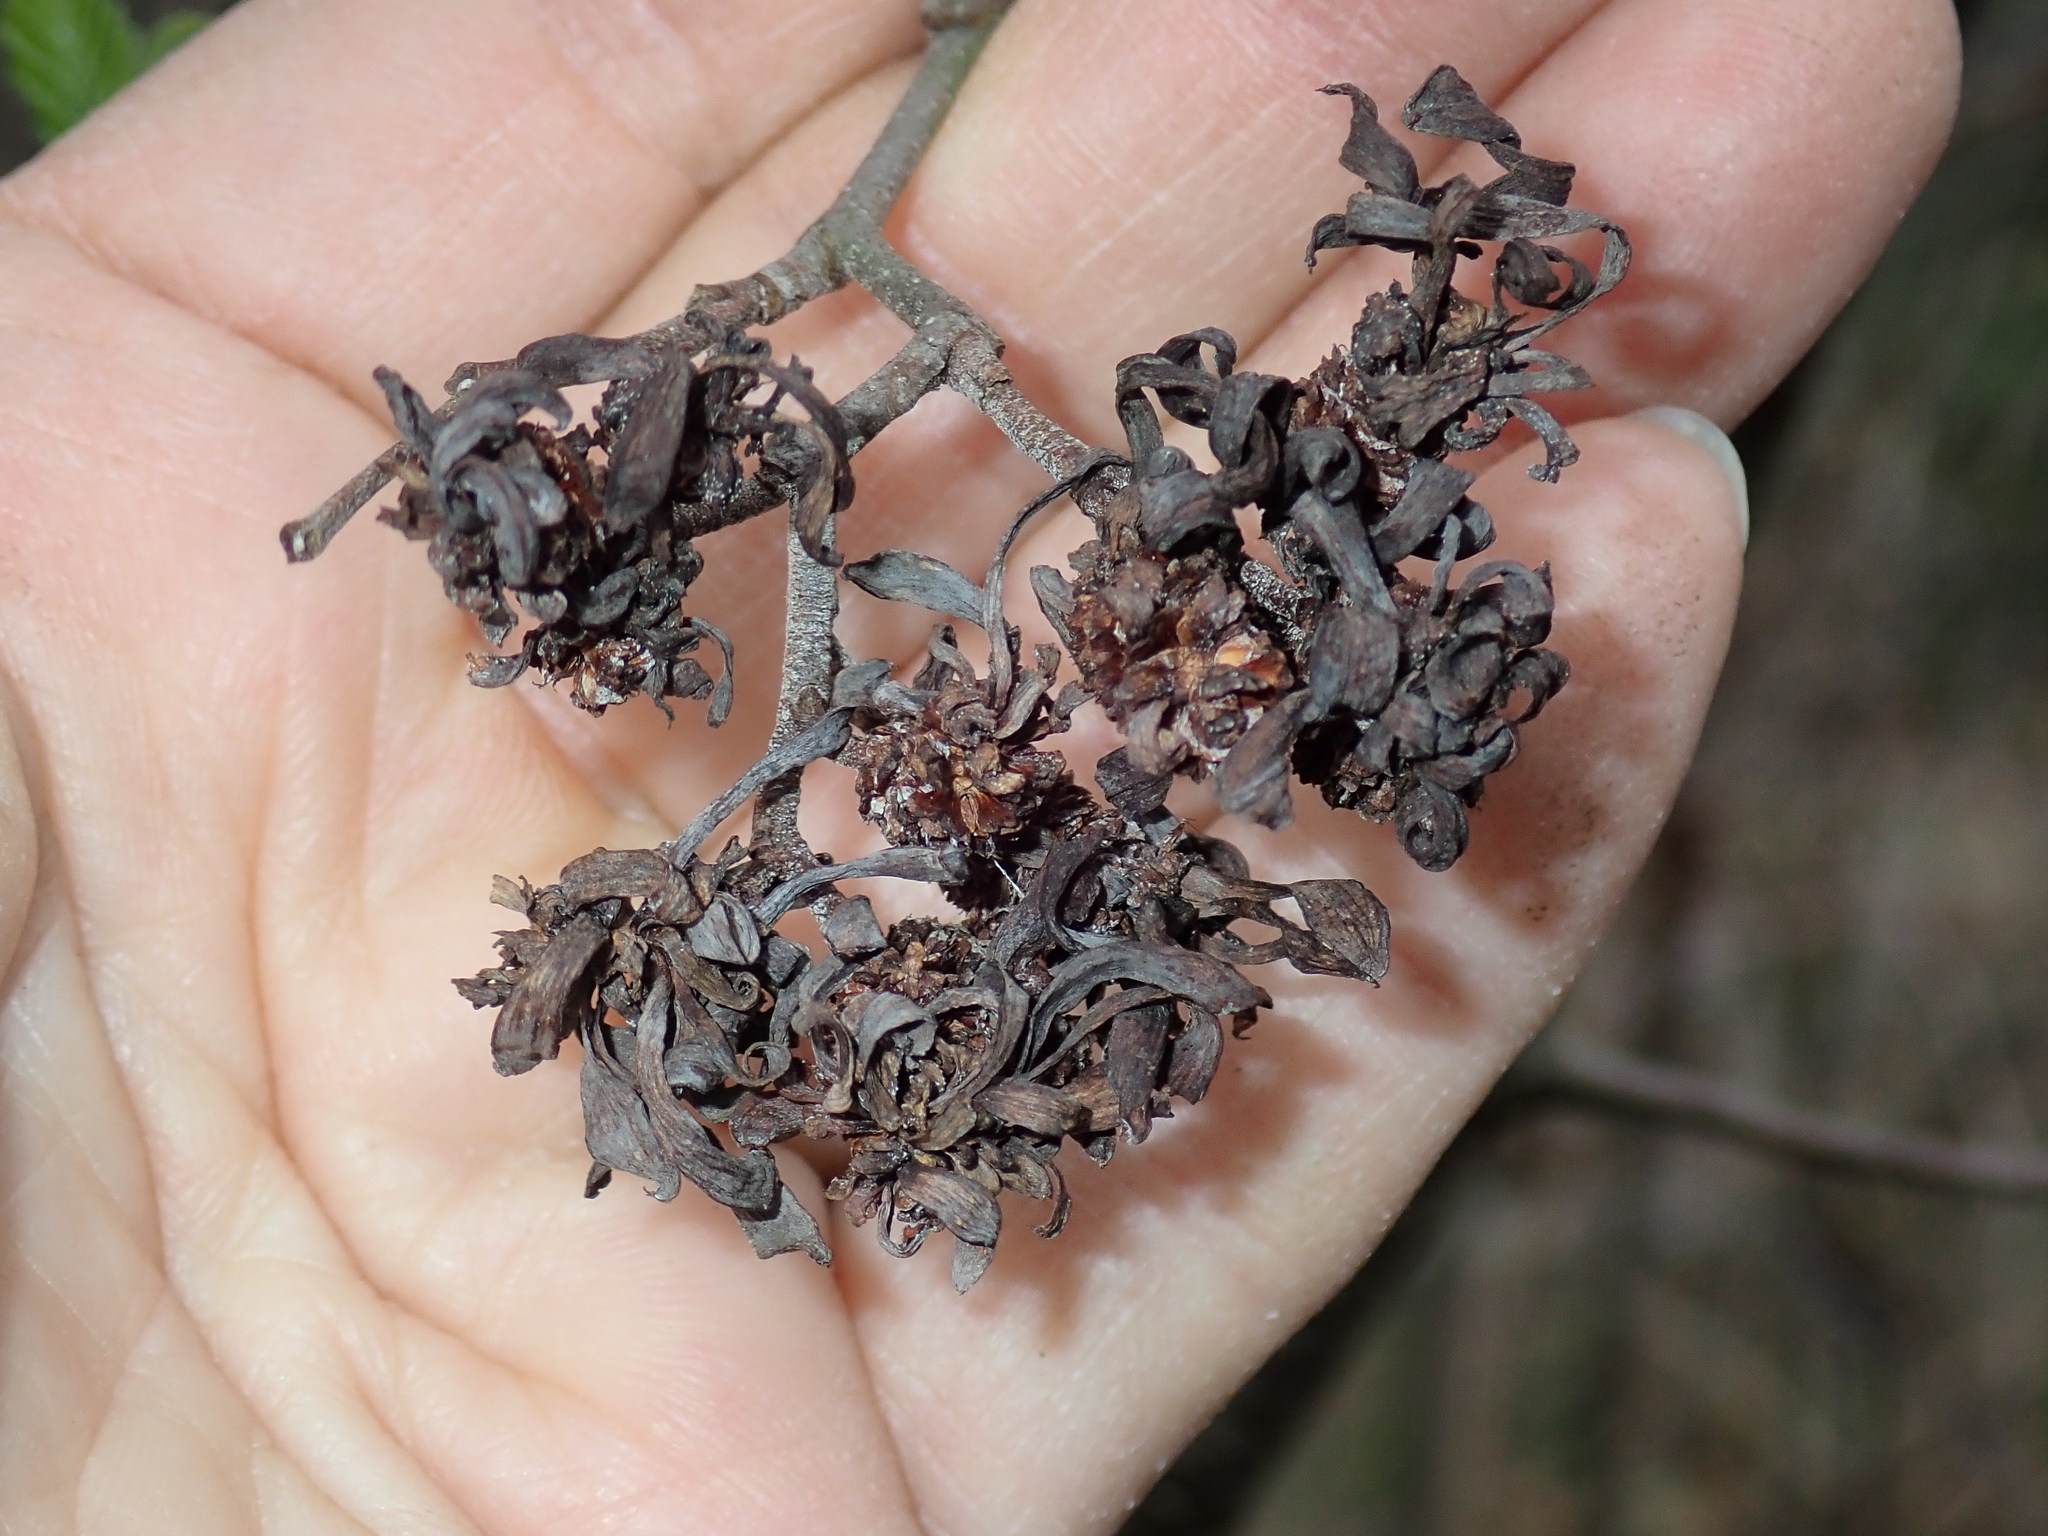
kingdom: Fungi
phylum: Ascomycota
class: Taphrinomycetes
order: Taphrinales
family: Taphrinaceae
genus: Taphrina
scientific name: Taphrina robinsoniana
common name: Eastern american alder tongue gall fungus
